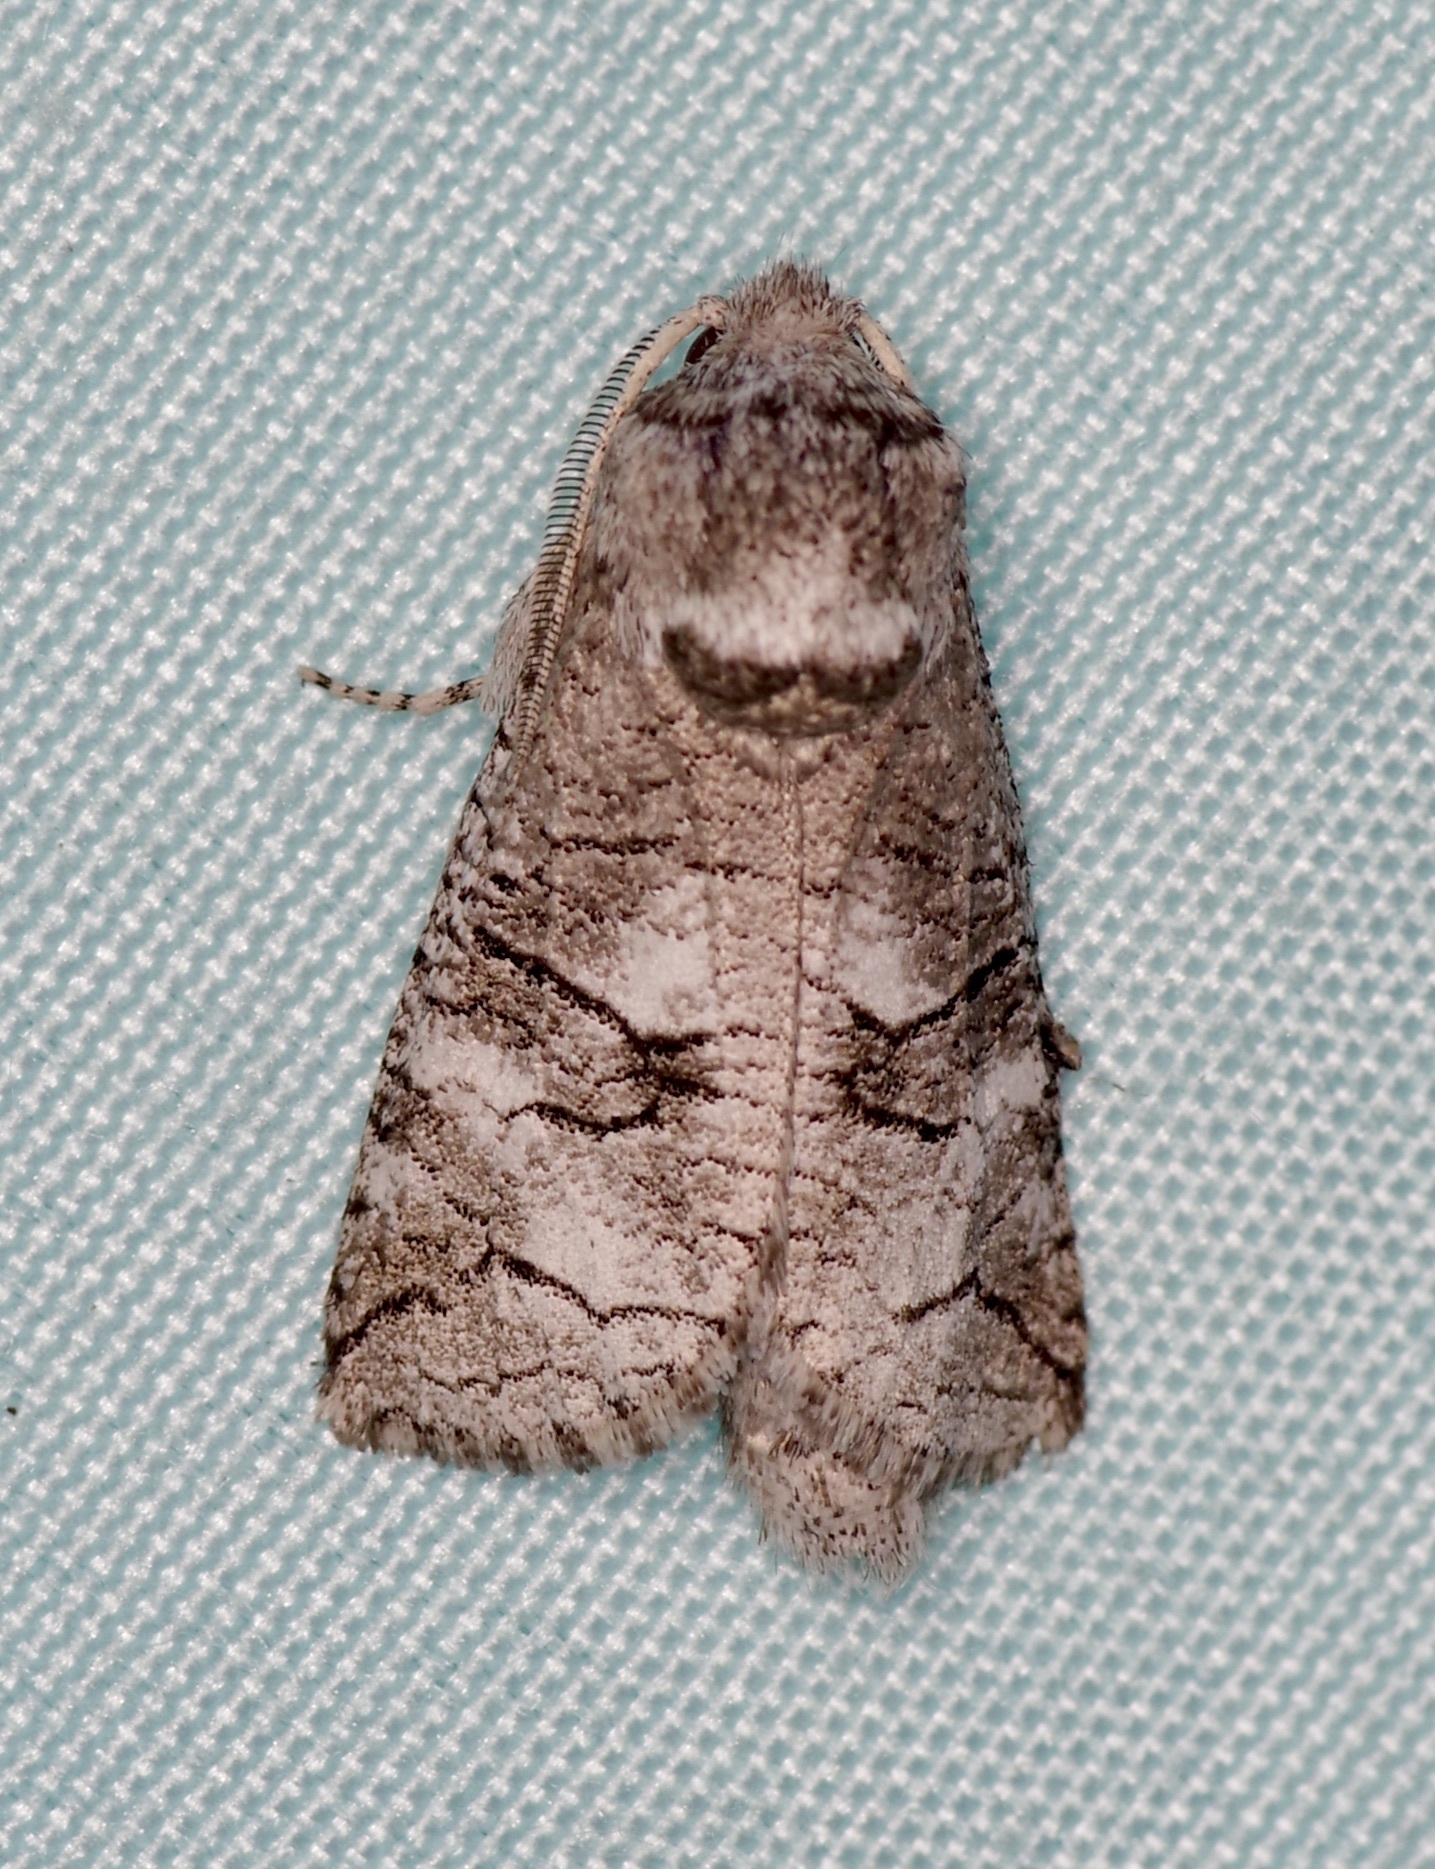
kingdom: Animalia
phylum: Arthropoda
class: Insecta
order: Lepidoptera
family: Cossidae
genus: Fania
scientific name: Fania nanus
